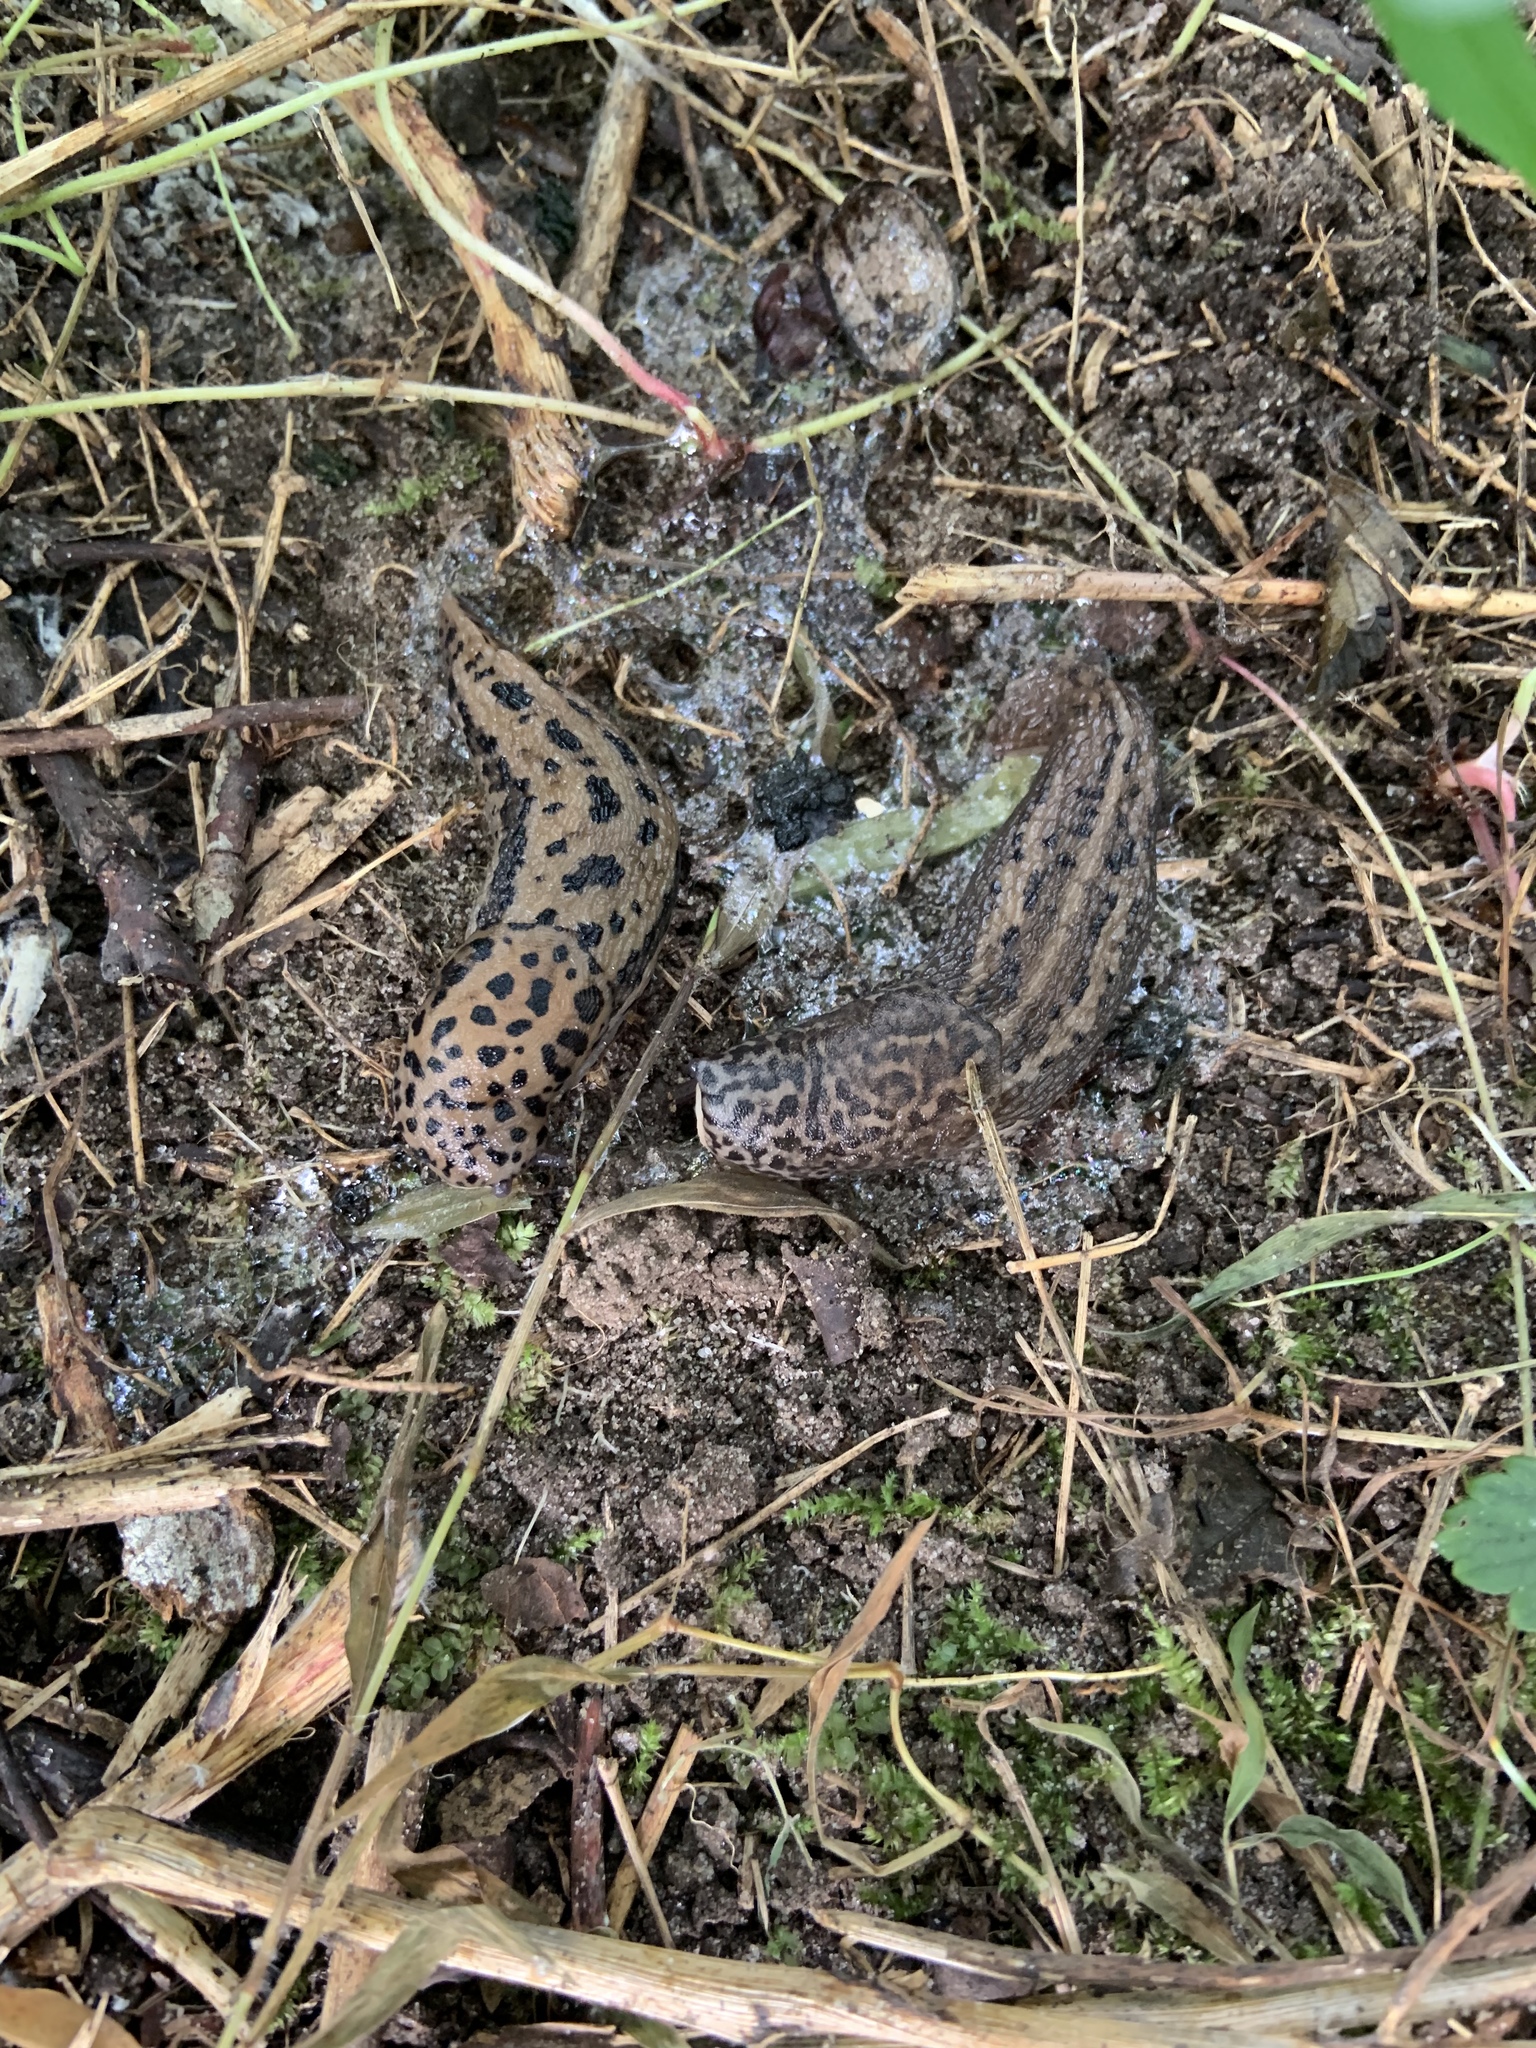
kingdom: Animalia
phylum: Mollusca
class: Gastropoda
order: Stylommatophora
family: Limacidae
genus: Limax
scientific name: Limax maximus
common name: Great grey slug
